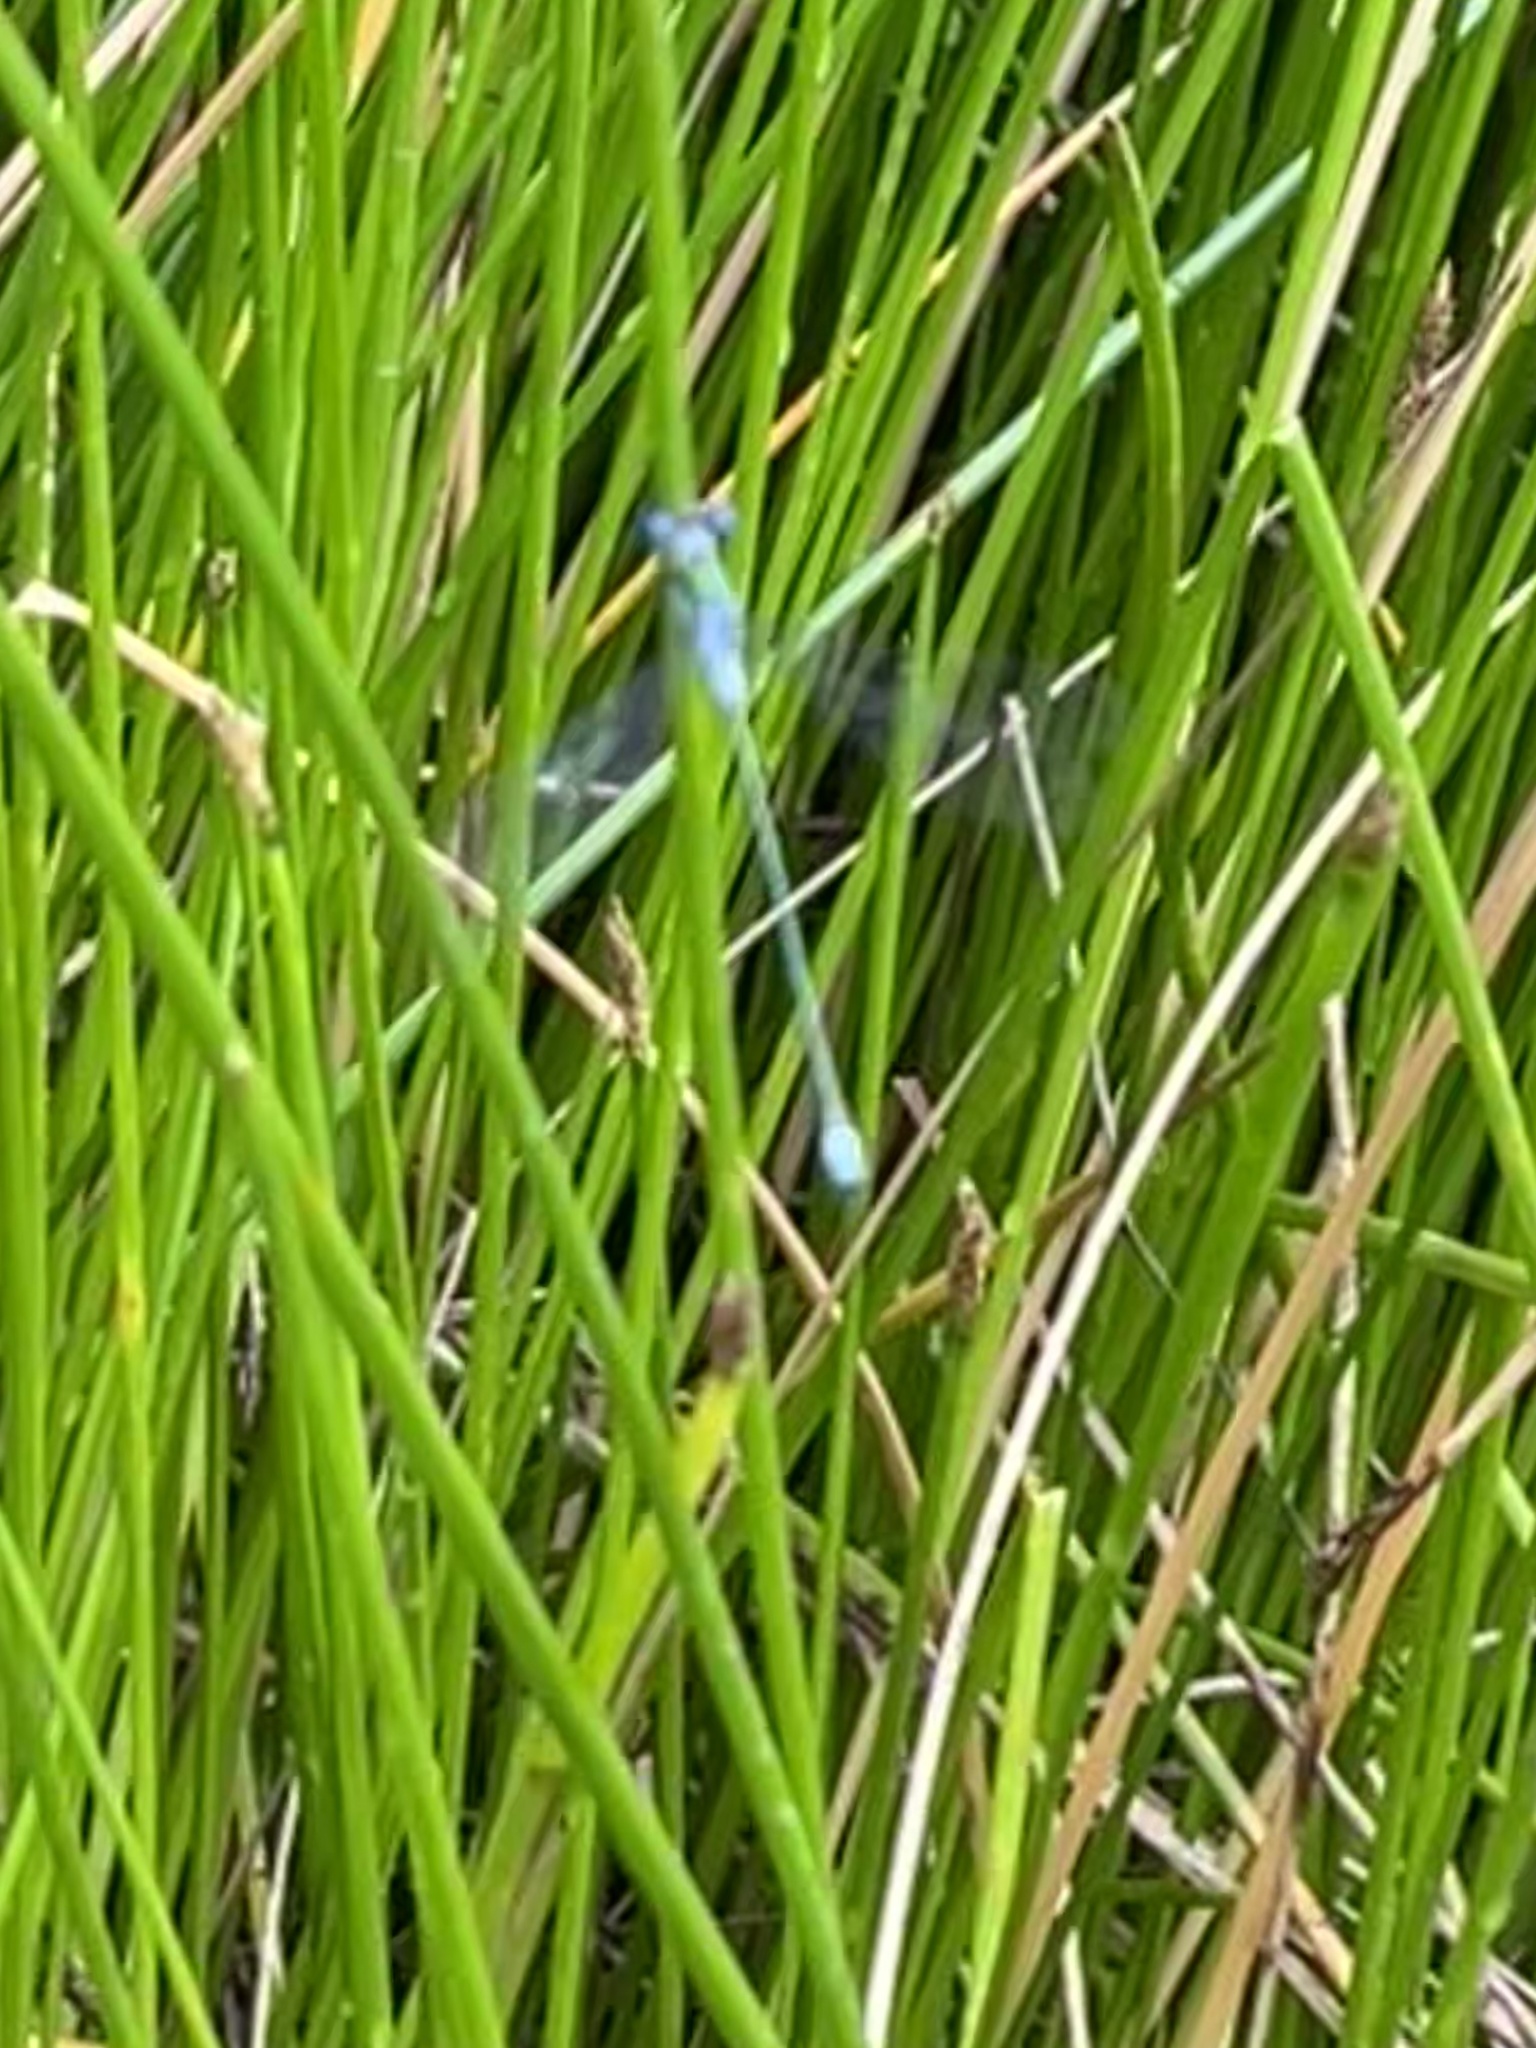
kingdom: Animalia
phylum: Arthropoda
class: Insecta
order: Odonata
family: Lestidae
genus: Lestes
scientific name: Lestes sponsa
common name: Common spreadwing
